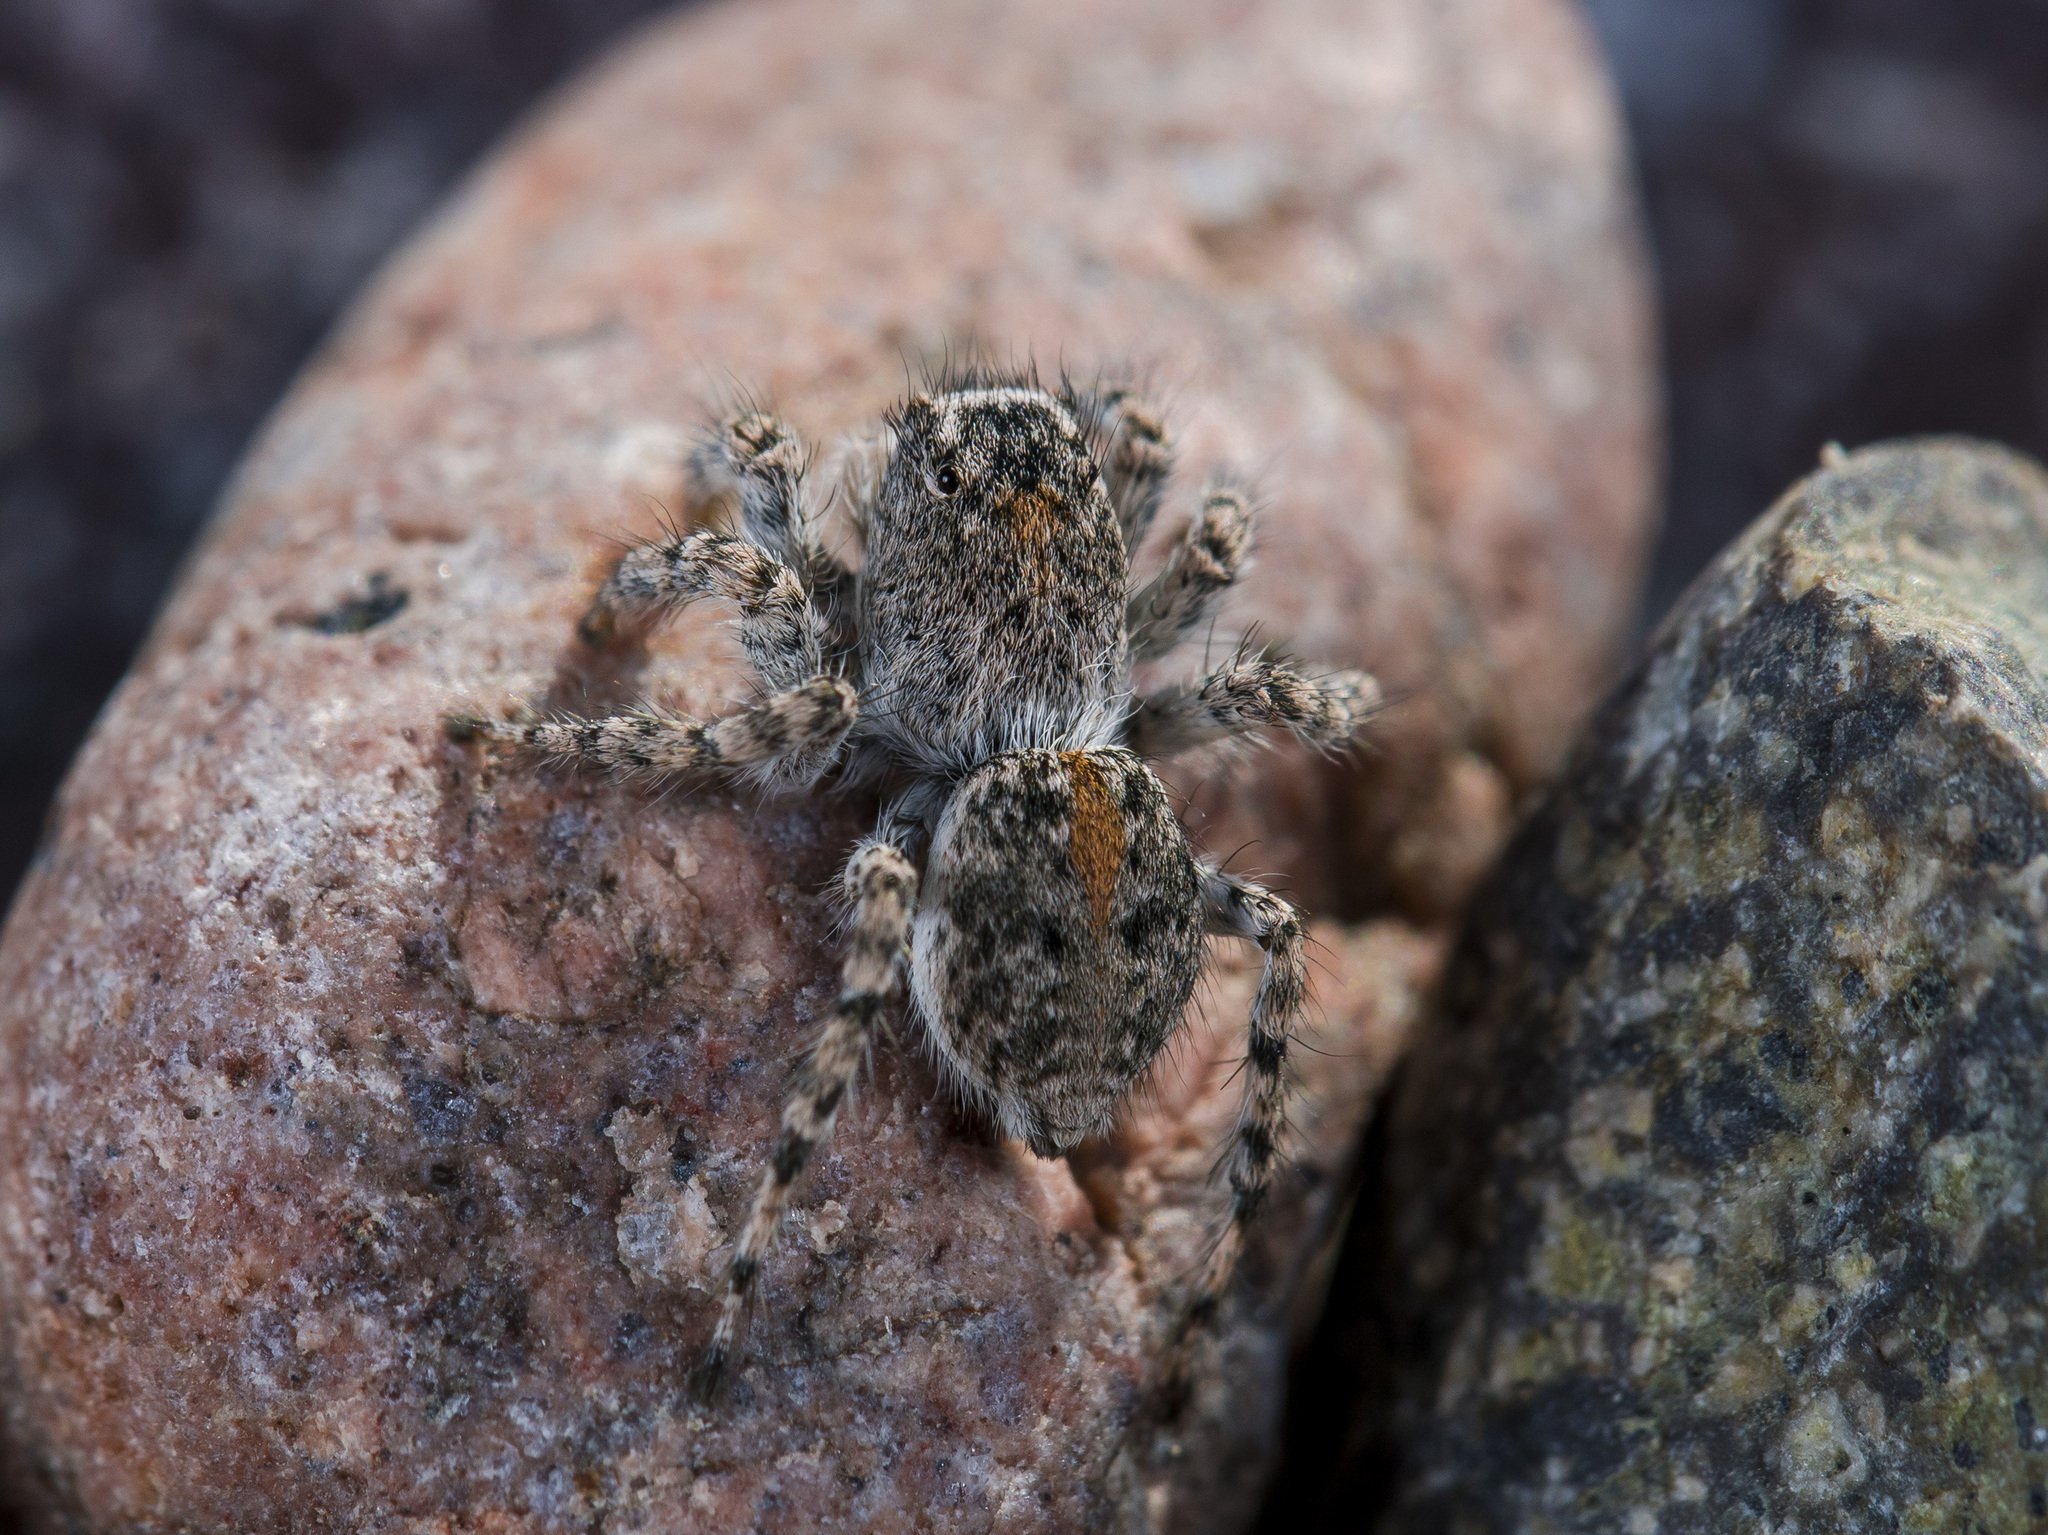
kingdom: Animalia
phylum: Arthropoda
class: Arachnida
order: Araneae
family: Salticidae
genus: Aelurillus
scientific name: Aelurillus dubatolovi
